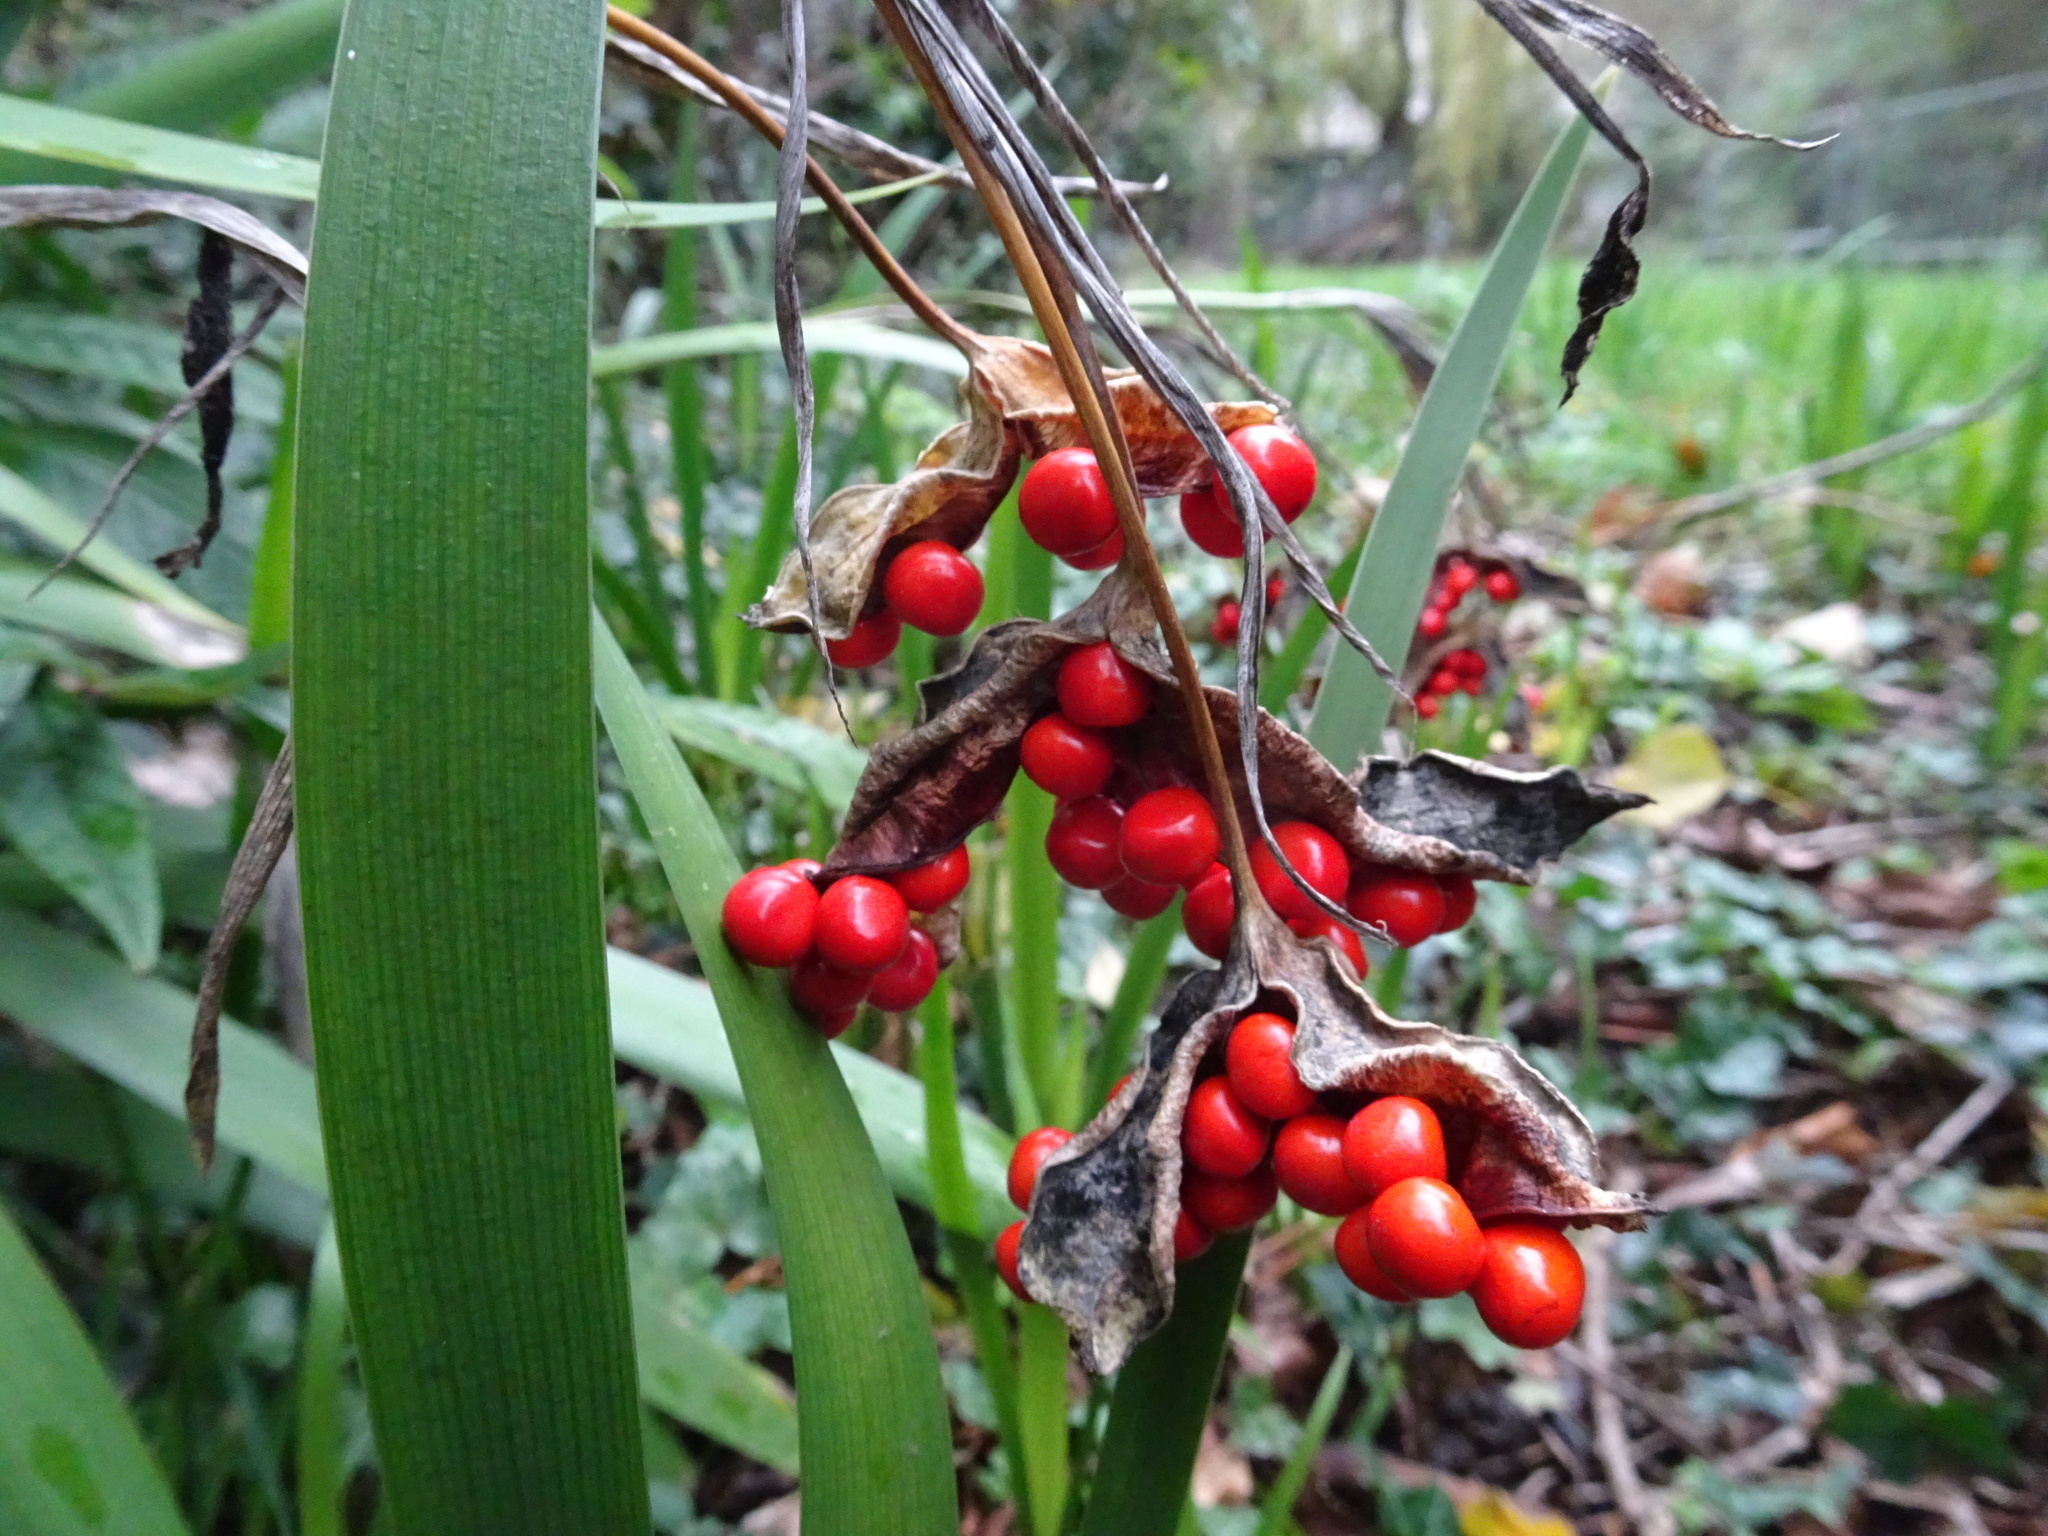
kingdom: Plantae
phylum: Tracheophyta
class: Liliopsida
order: Asparagales
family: Iridaceae
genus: Iris
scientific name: Iris foetidissima
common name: Stinking iris
